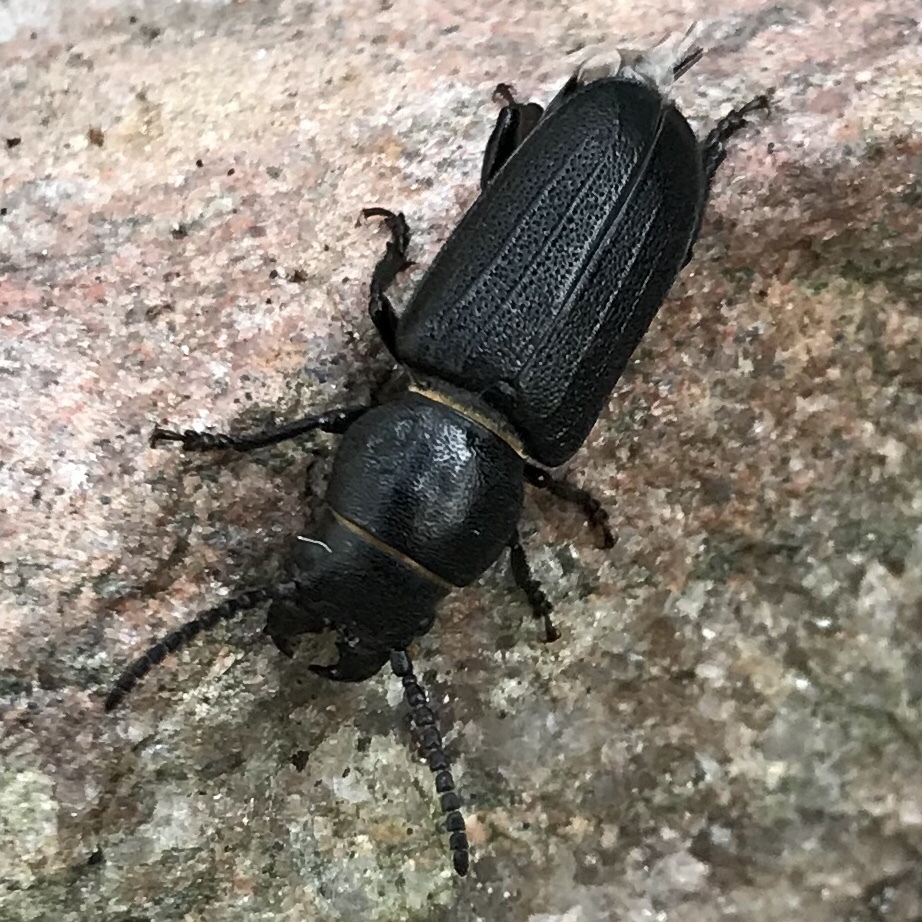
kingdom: Animalia
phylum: Arthropoda
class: Insecta
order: Coleoptera
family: Cerambycidae
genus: Spondylis
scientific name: Spondylis buprestoides
